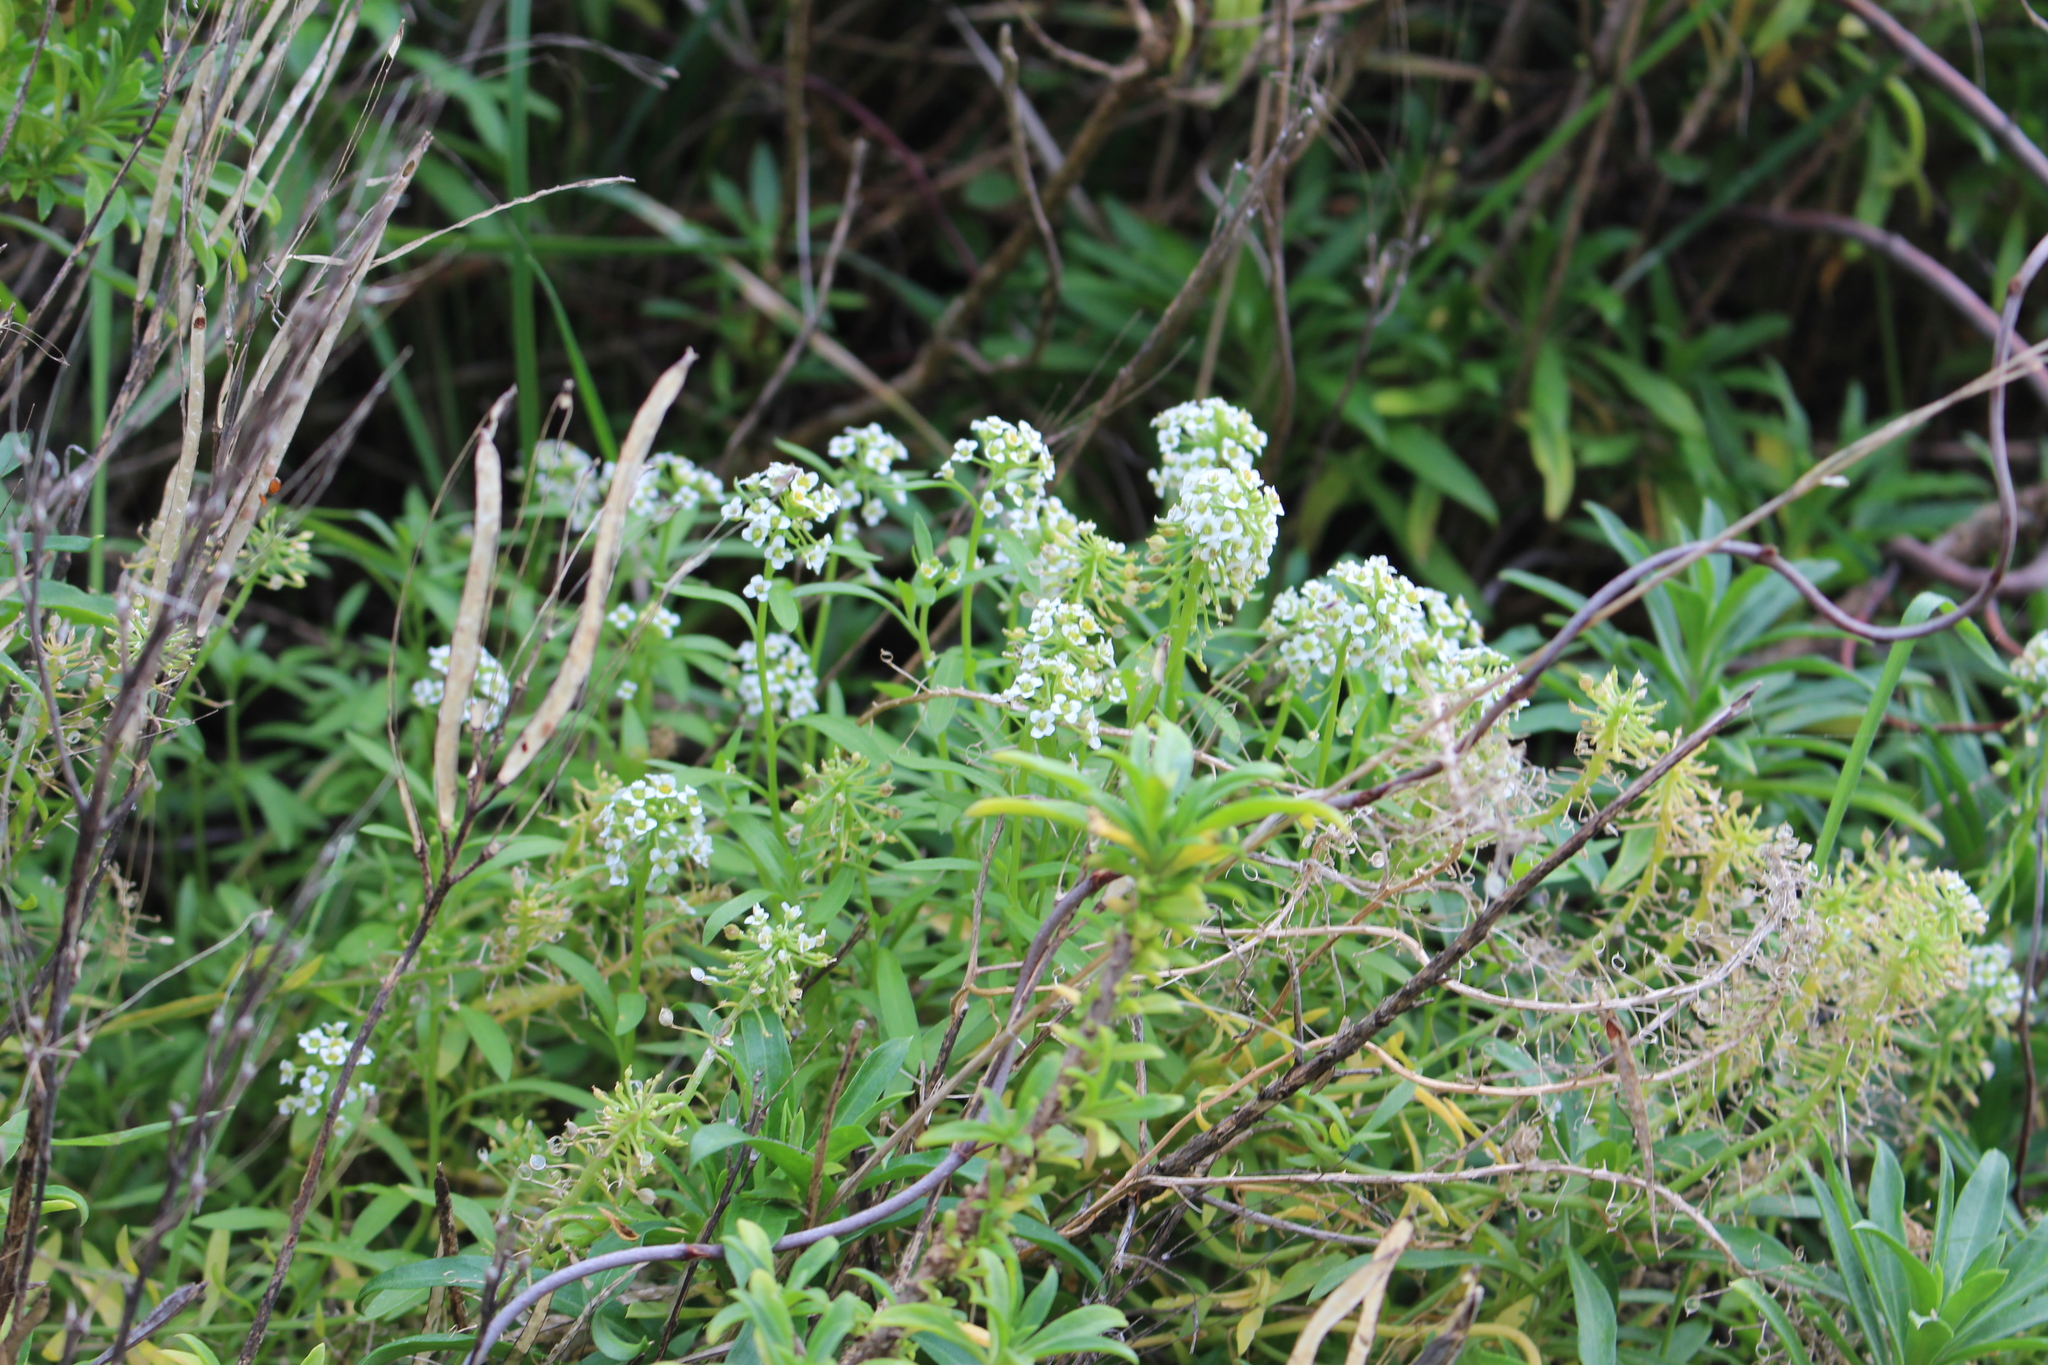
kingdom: Plantae
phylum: Tracheophyta
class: Magnoliopsida
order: Brassicales
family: Brassicaceae
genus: Lobularia
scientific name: Lobularia maritima
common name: Sweet alison
